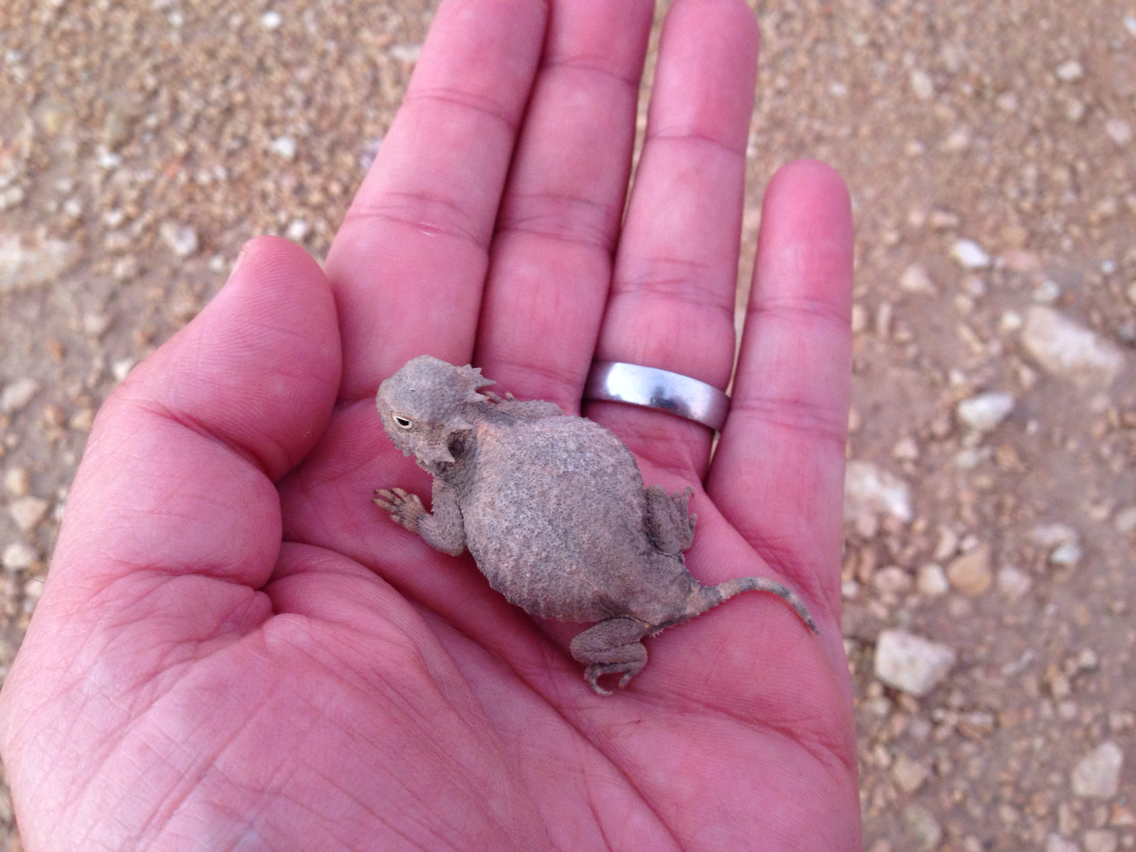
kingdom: Animalia
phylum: Chordata
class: Squamata
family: Phrynosomatidae
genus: Phrynosoma
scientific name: Phrynosoma modestum
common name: Roundtail horned lizard
